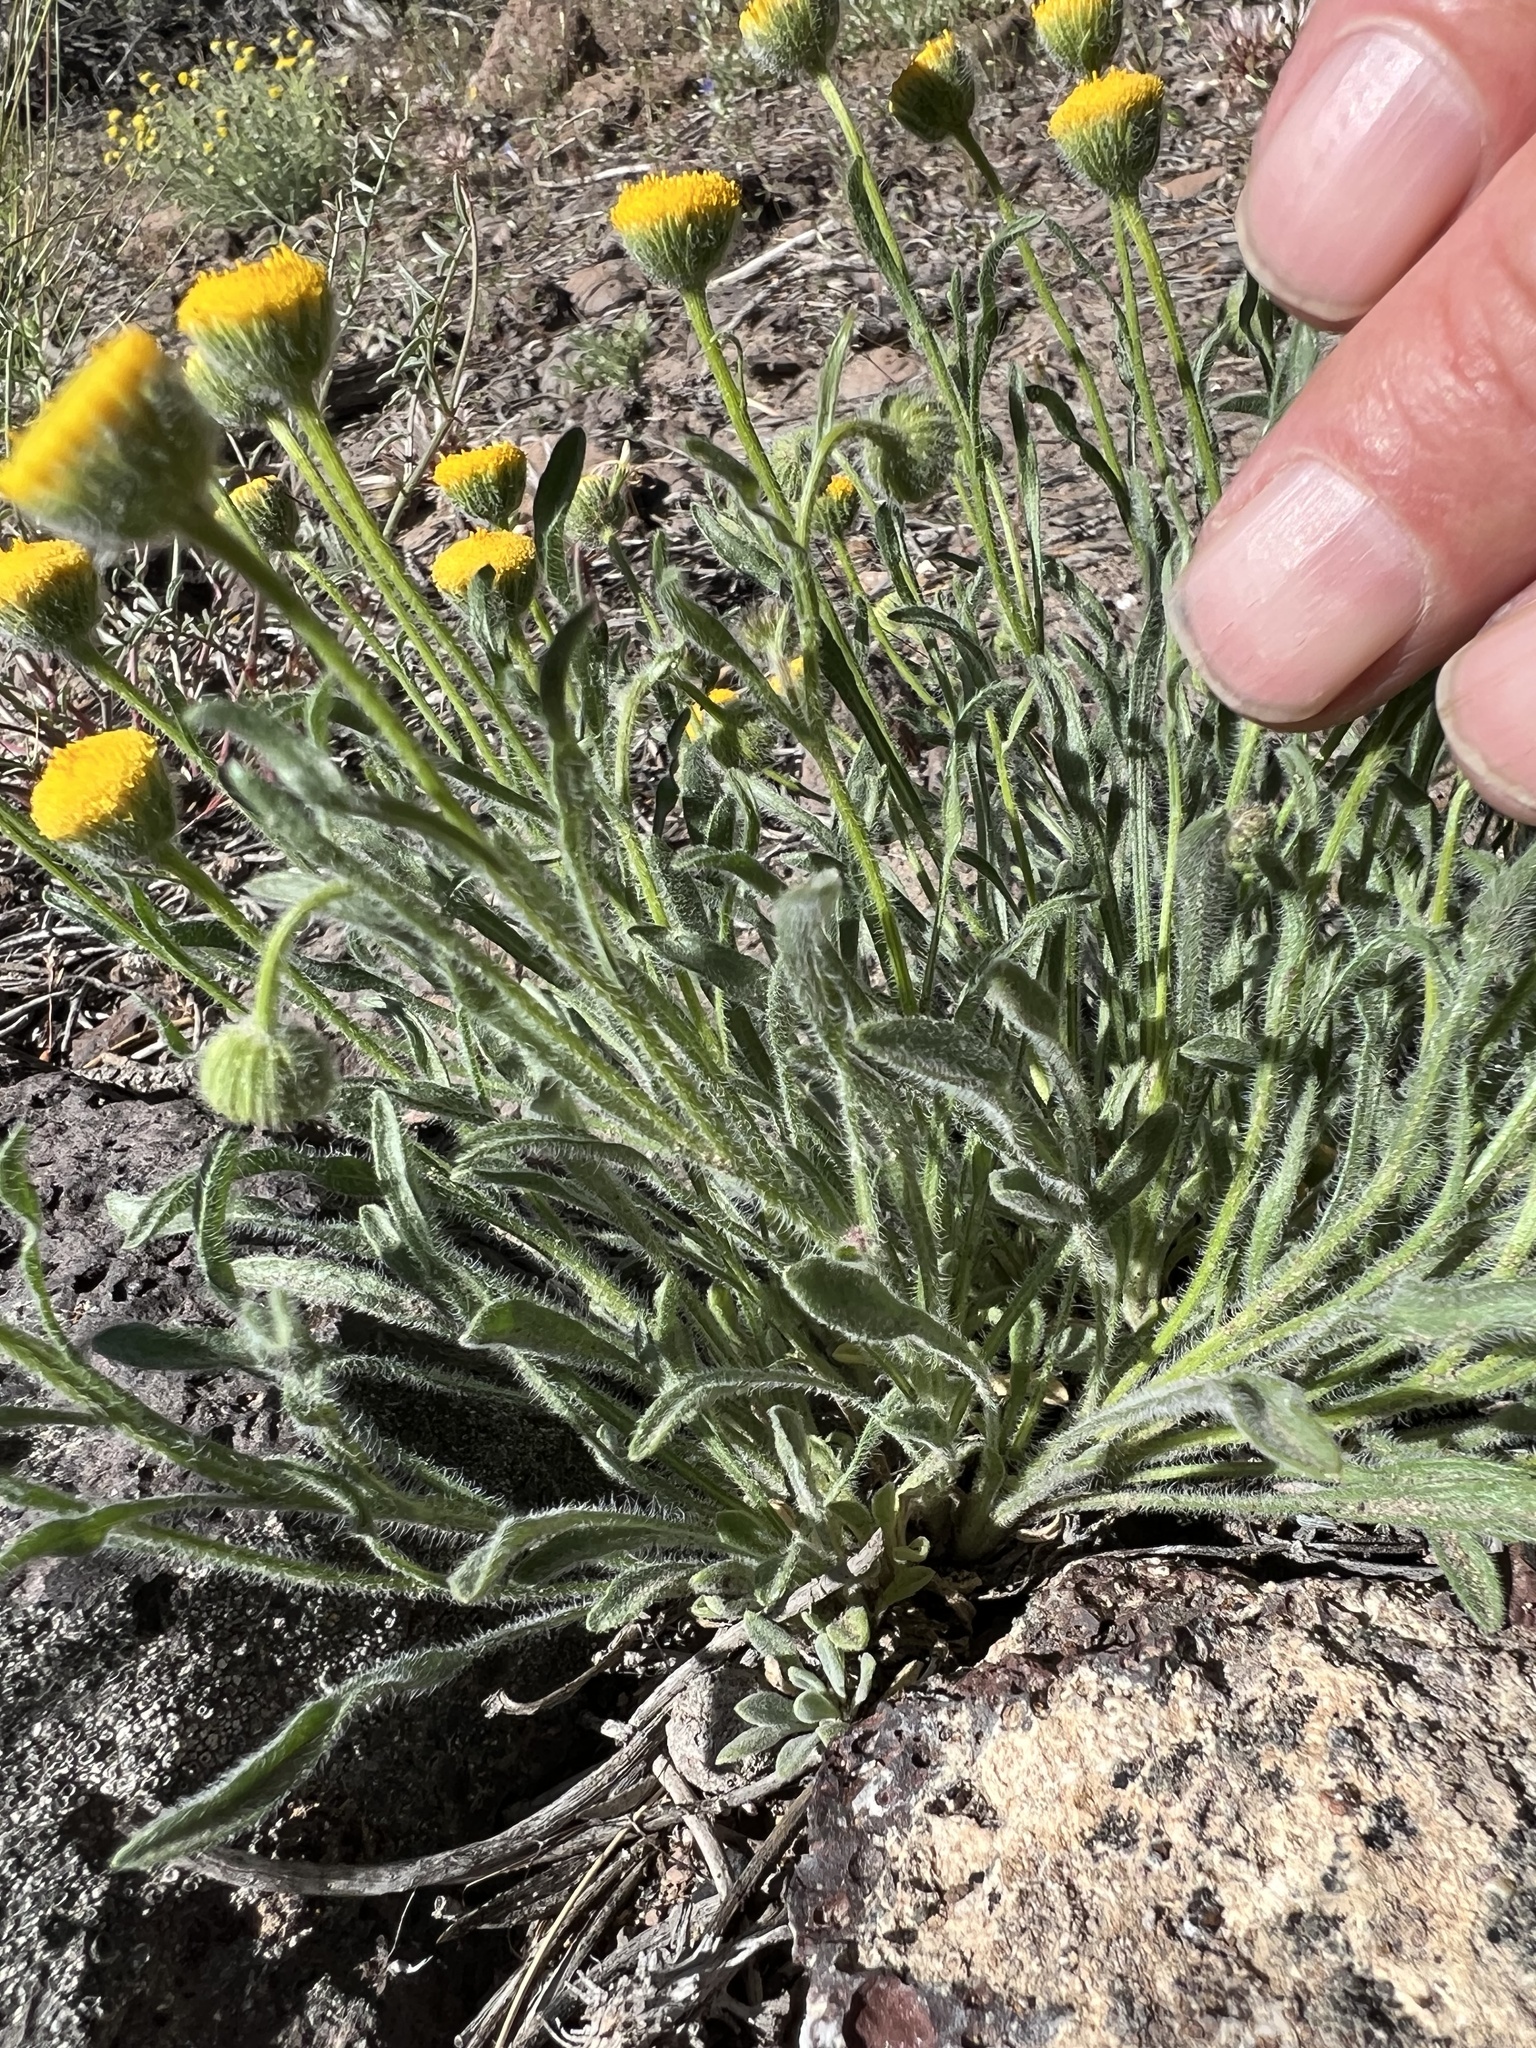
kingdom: Plantae
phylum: Tracheophyta
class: Magnoliopsida
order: Asterales
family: Asteraceae
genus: Erigeron
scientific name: Erigeron aphanactis
